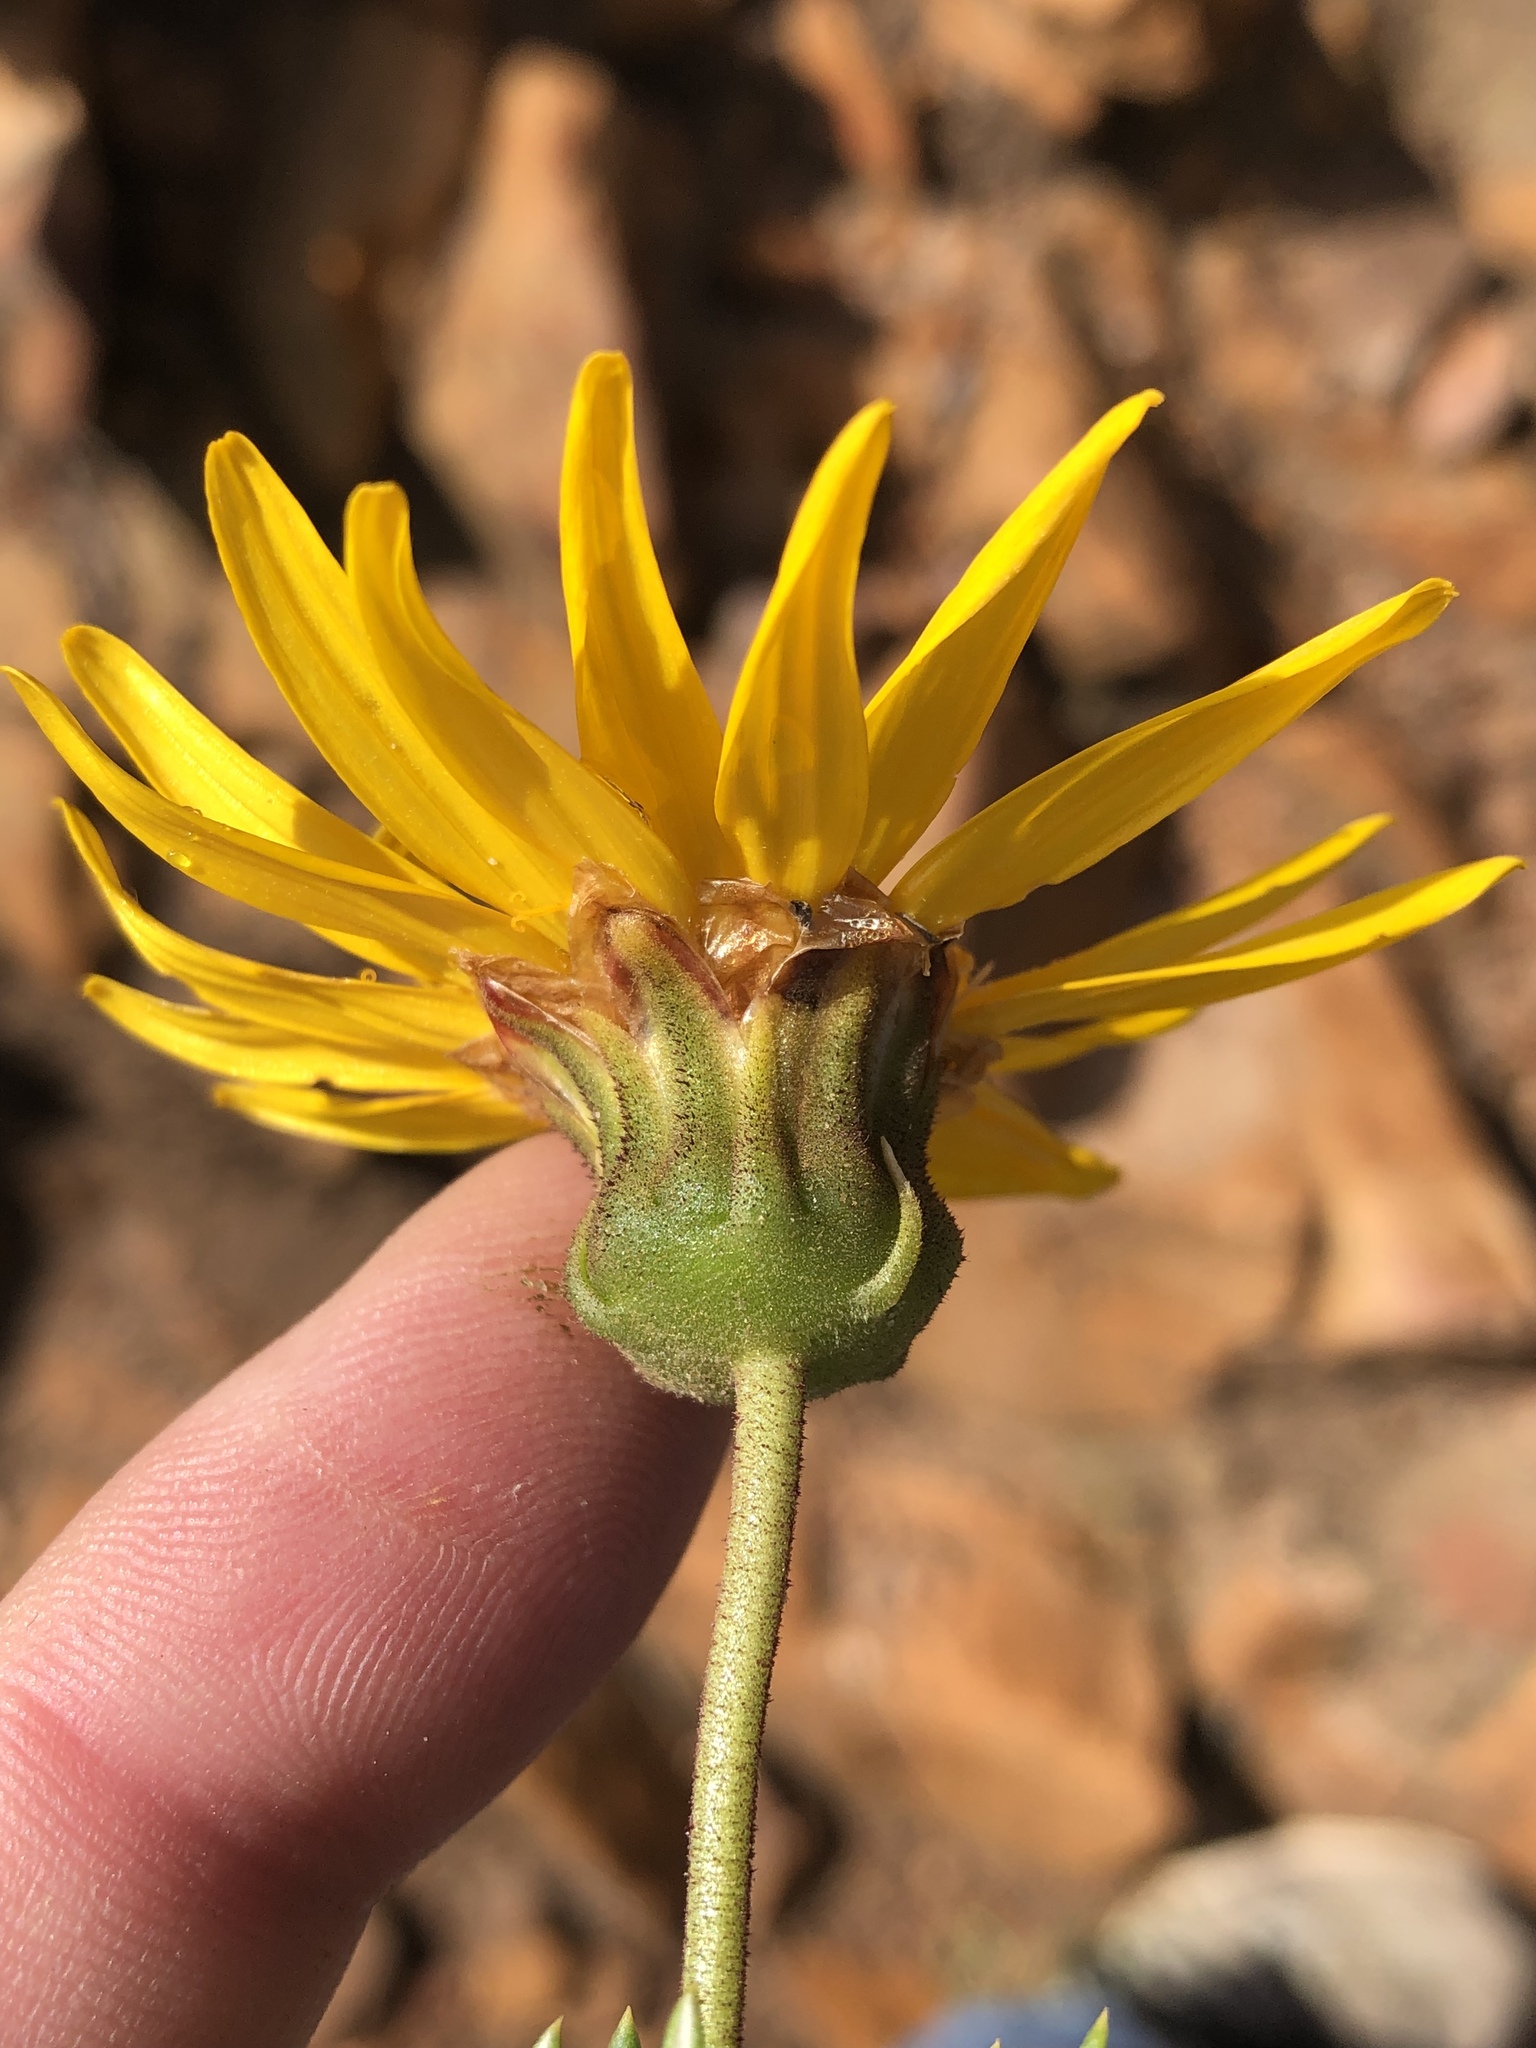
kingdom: Plantae
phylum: Tracheophyta
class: Magnoliopsida
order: Asterales
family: Asteraceae
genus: Heterolepis
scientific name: Heterolepis aliena
